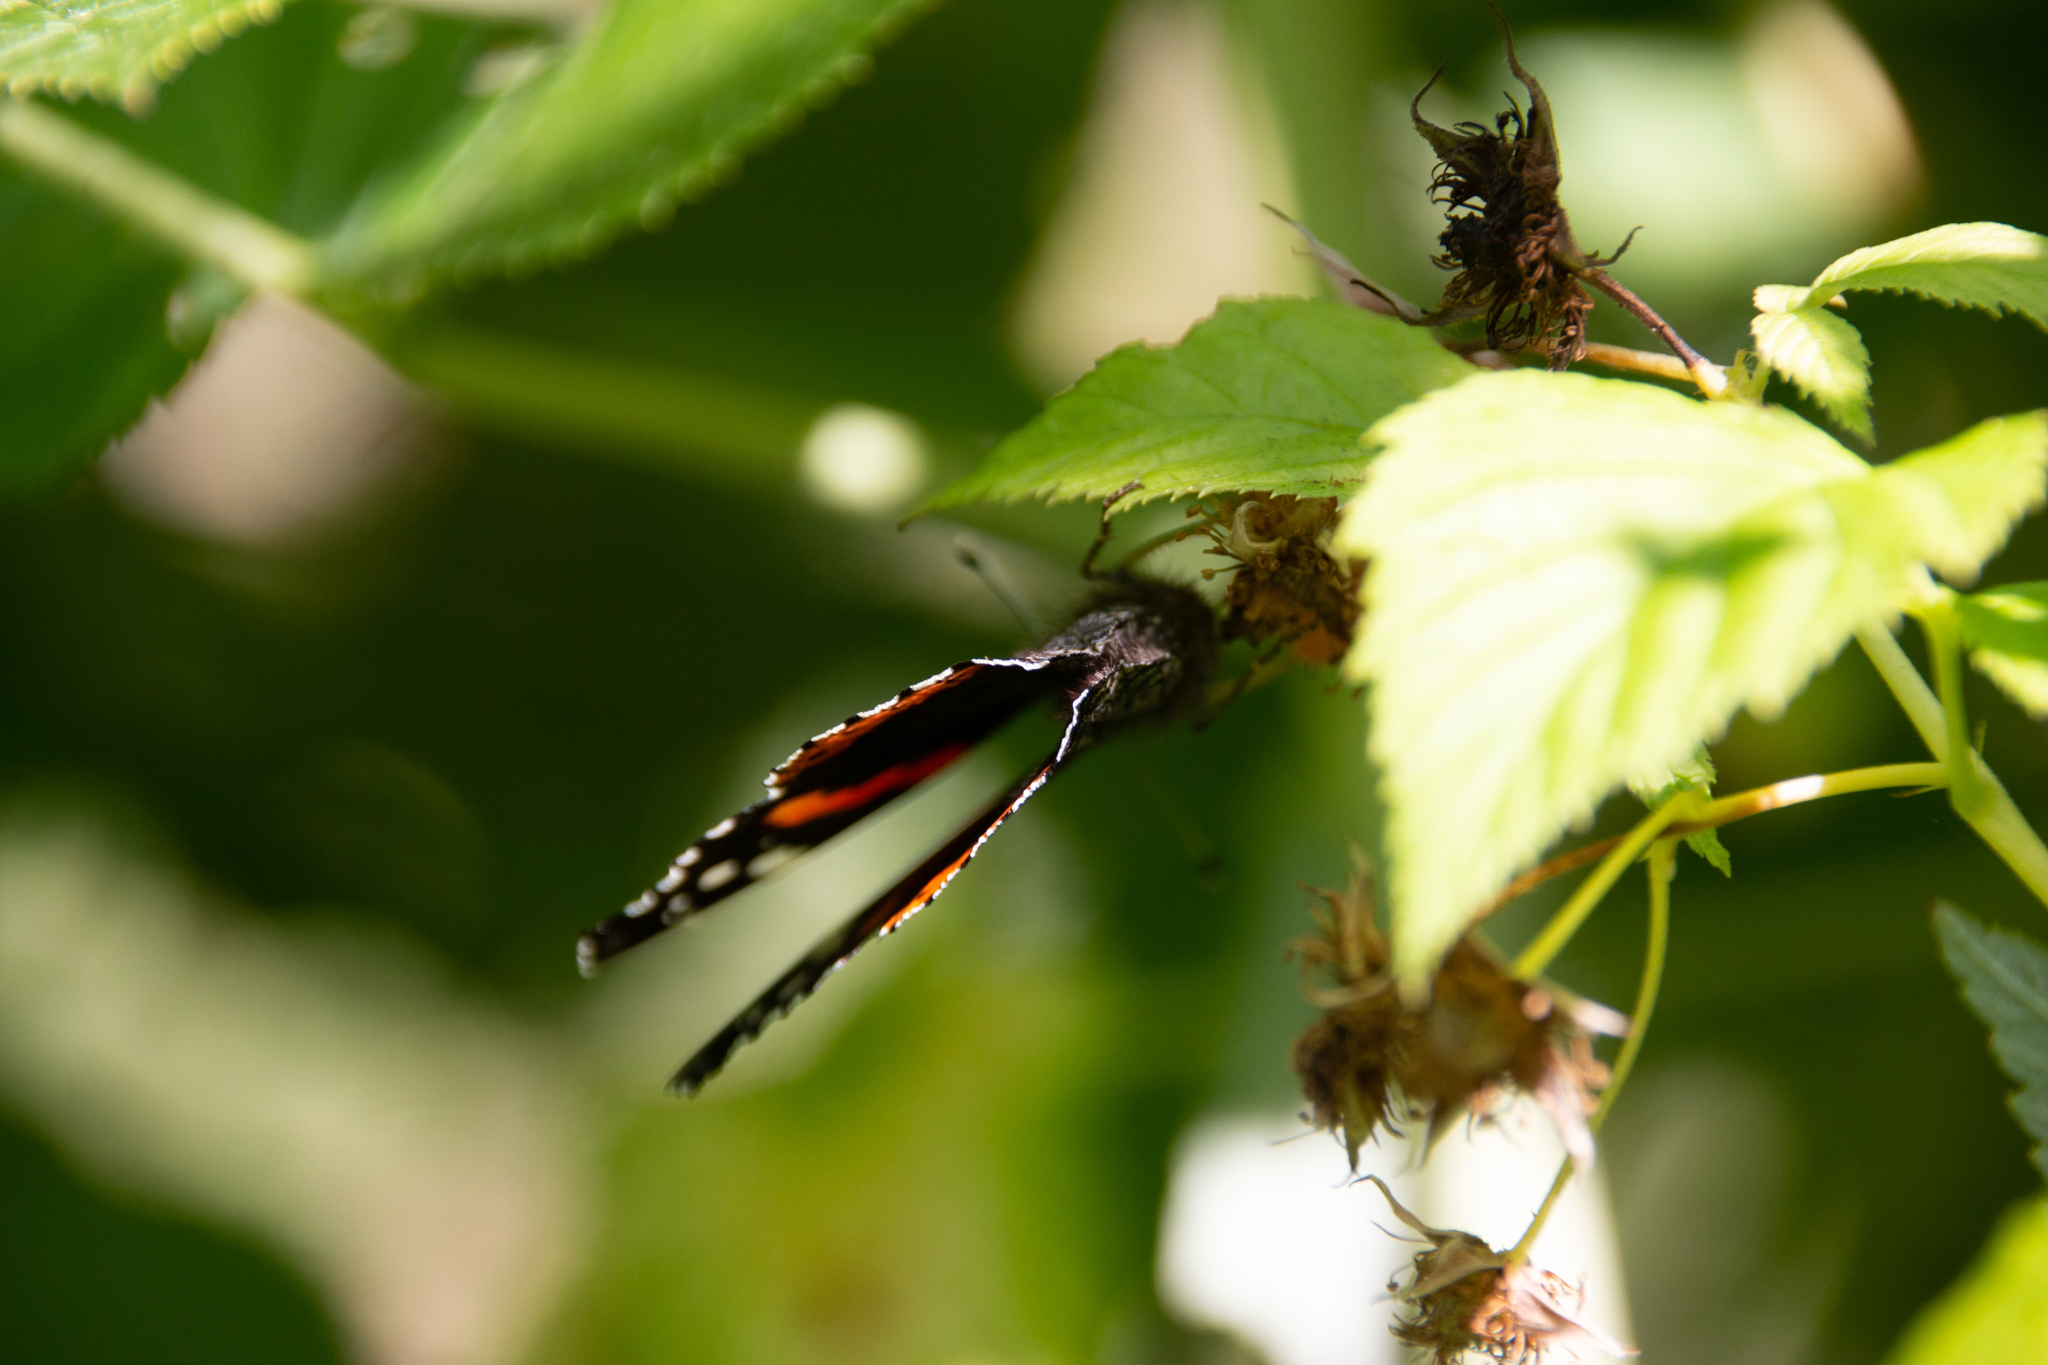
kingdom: Animalia
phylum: Arthropoda
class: Insecta
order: Lepidoptera
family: Nymphalidae
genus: Vanessa
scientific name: Vanessa atalanta
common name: Red admiral
